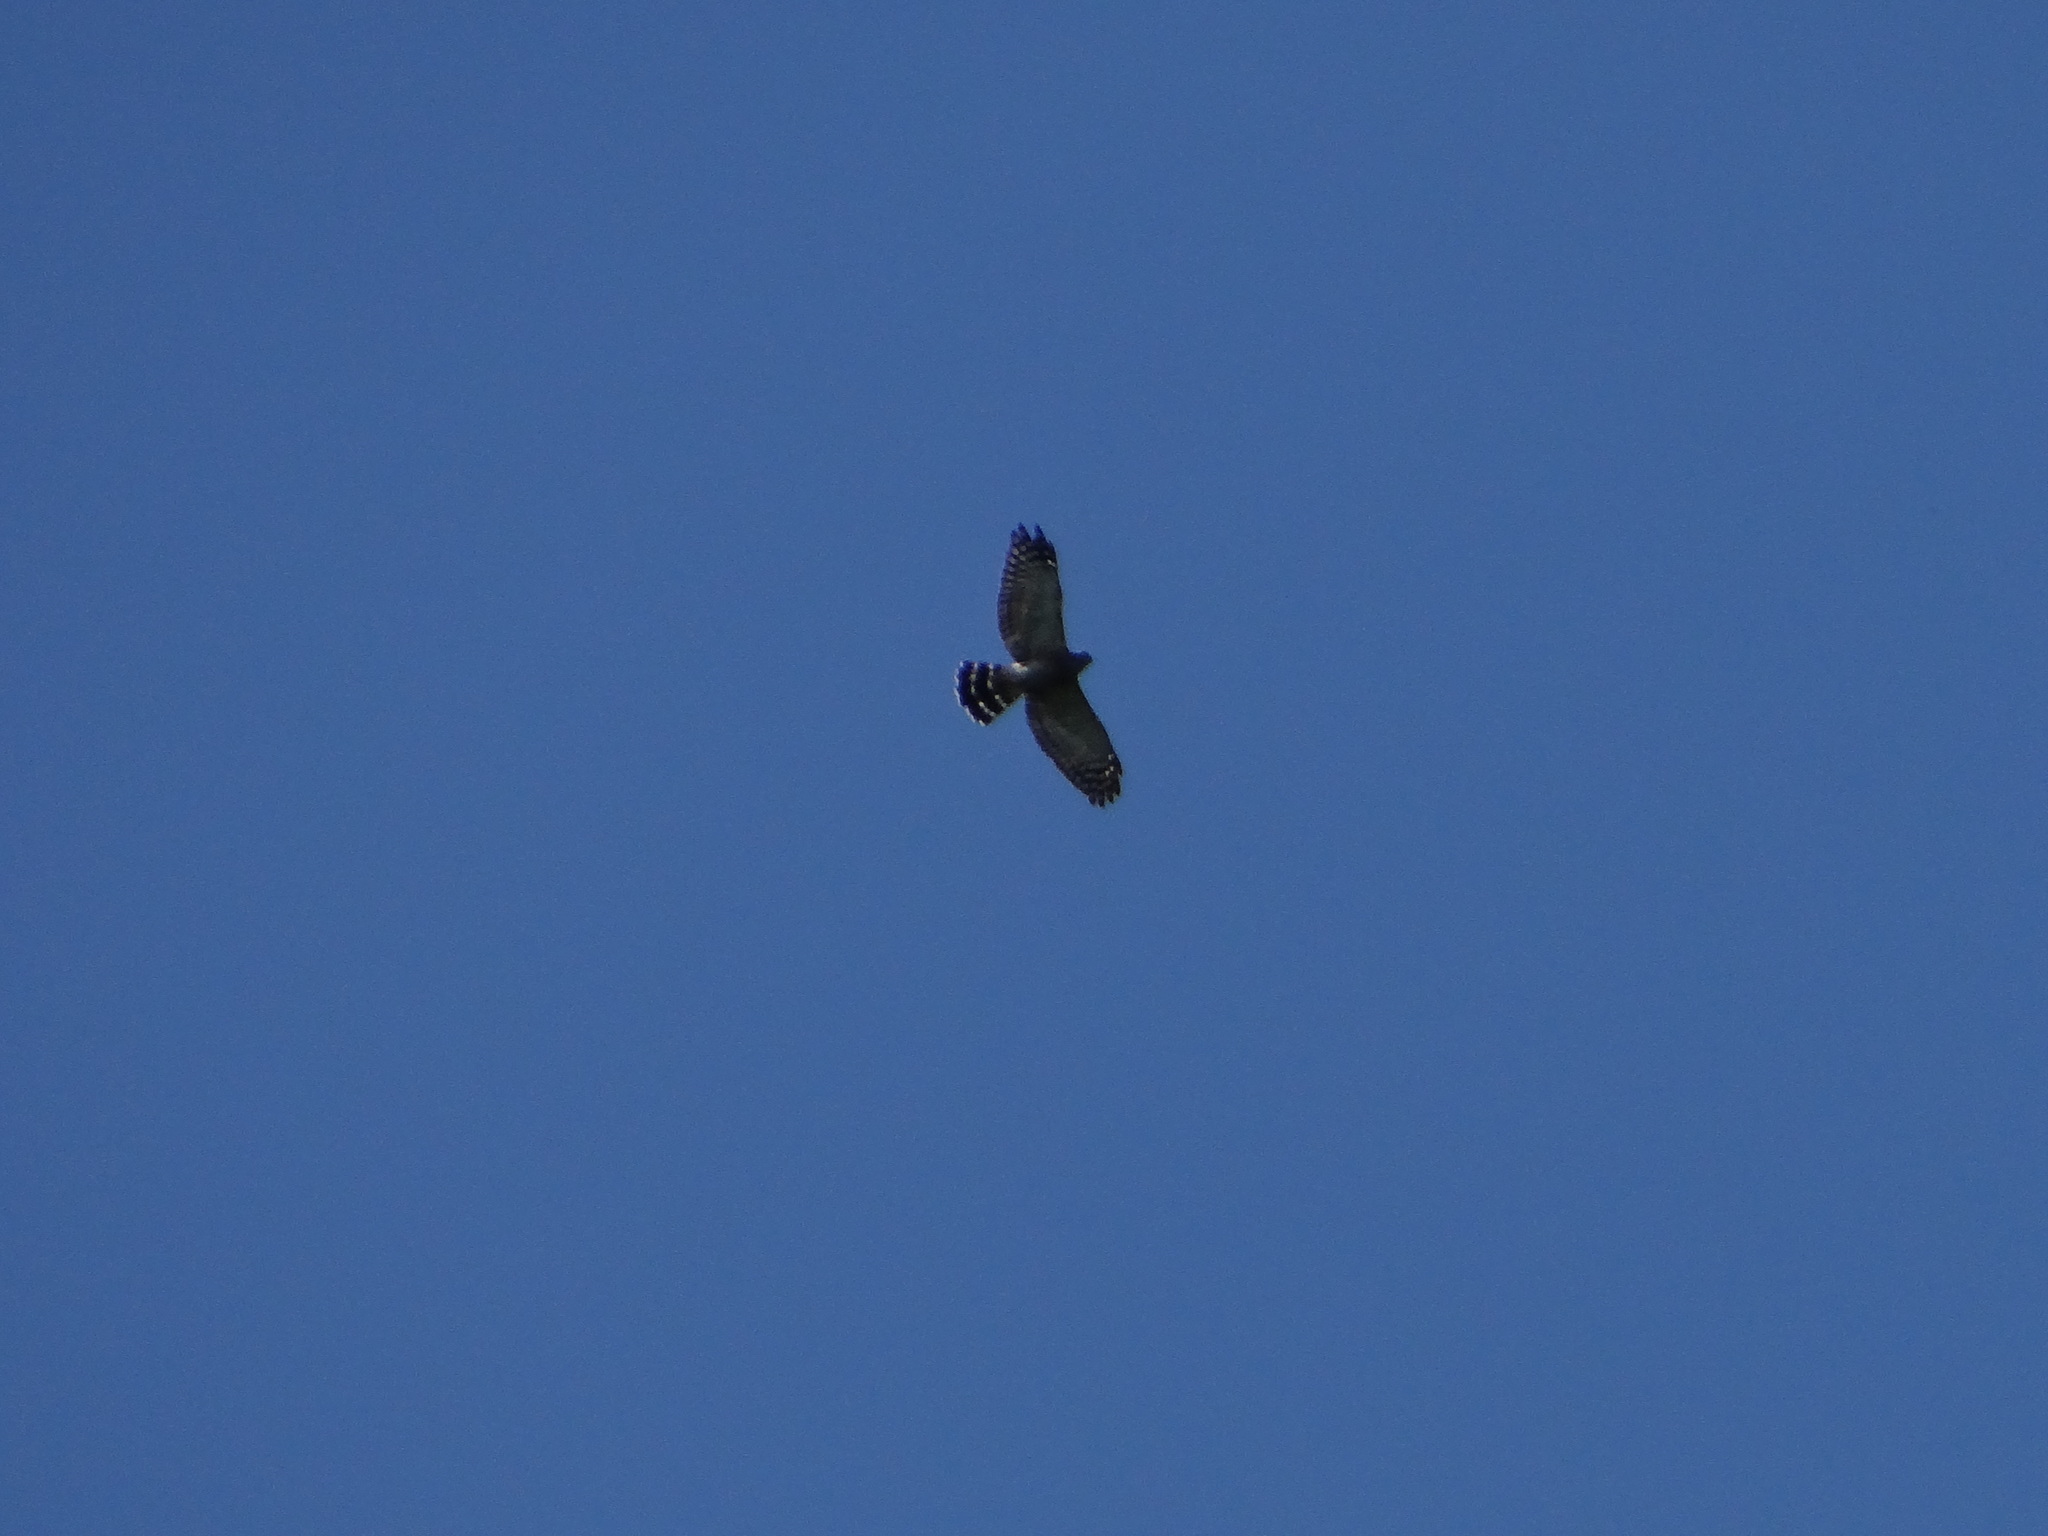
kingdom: Animalia
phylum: Chordata
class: Aves
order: Accipitriformes
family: Accipitridae
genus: Harpagus
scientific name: Harpagus bidentatus
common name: Double-toothed kite
